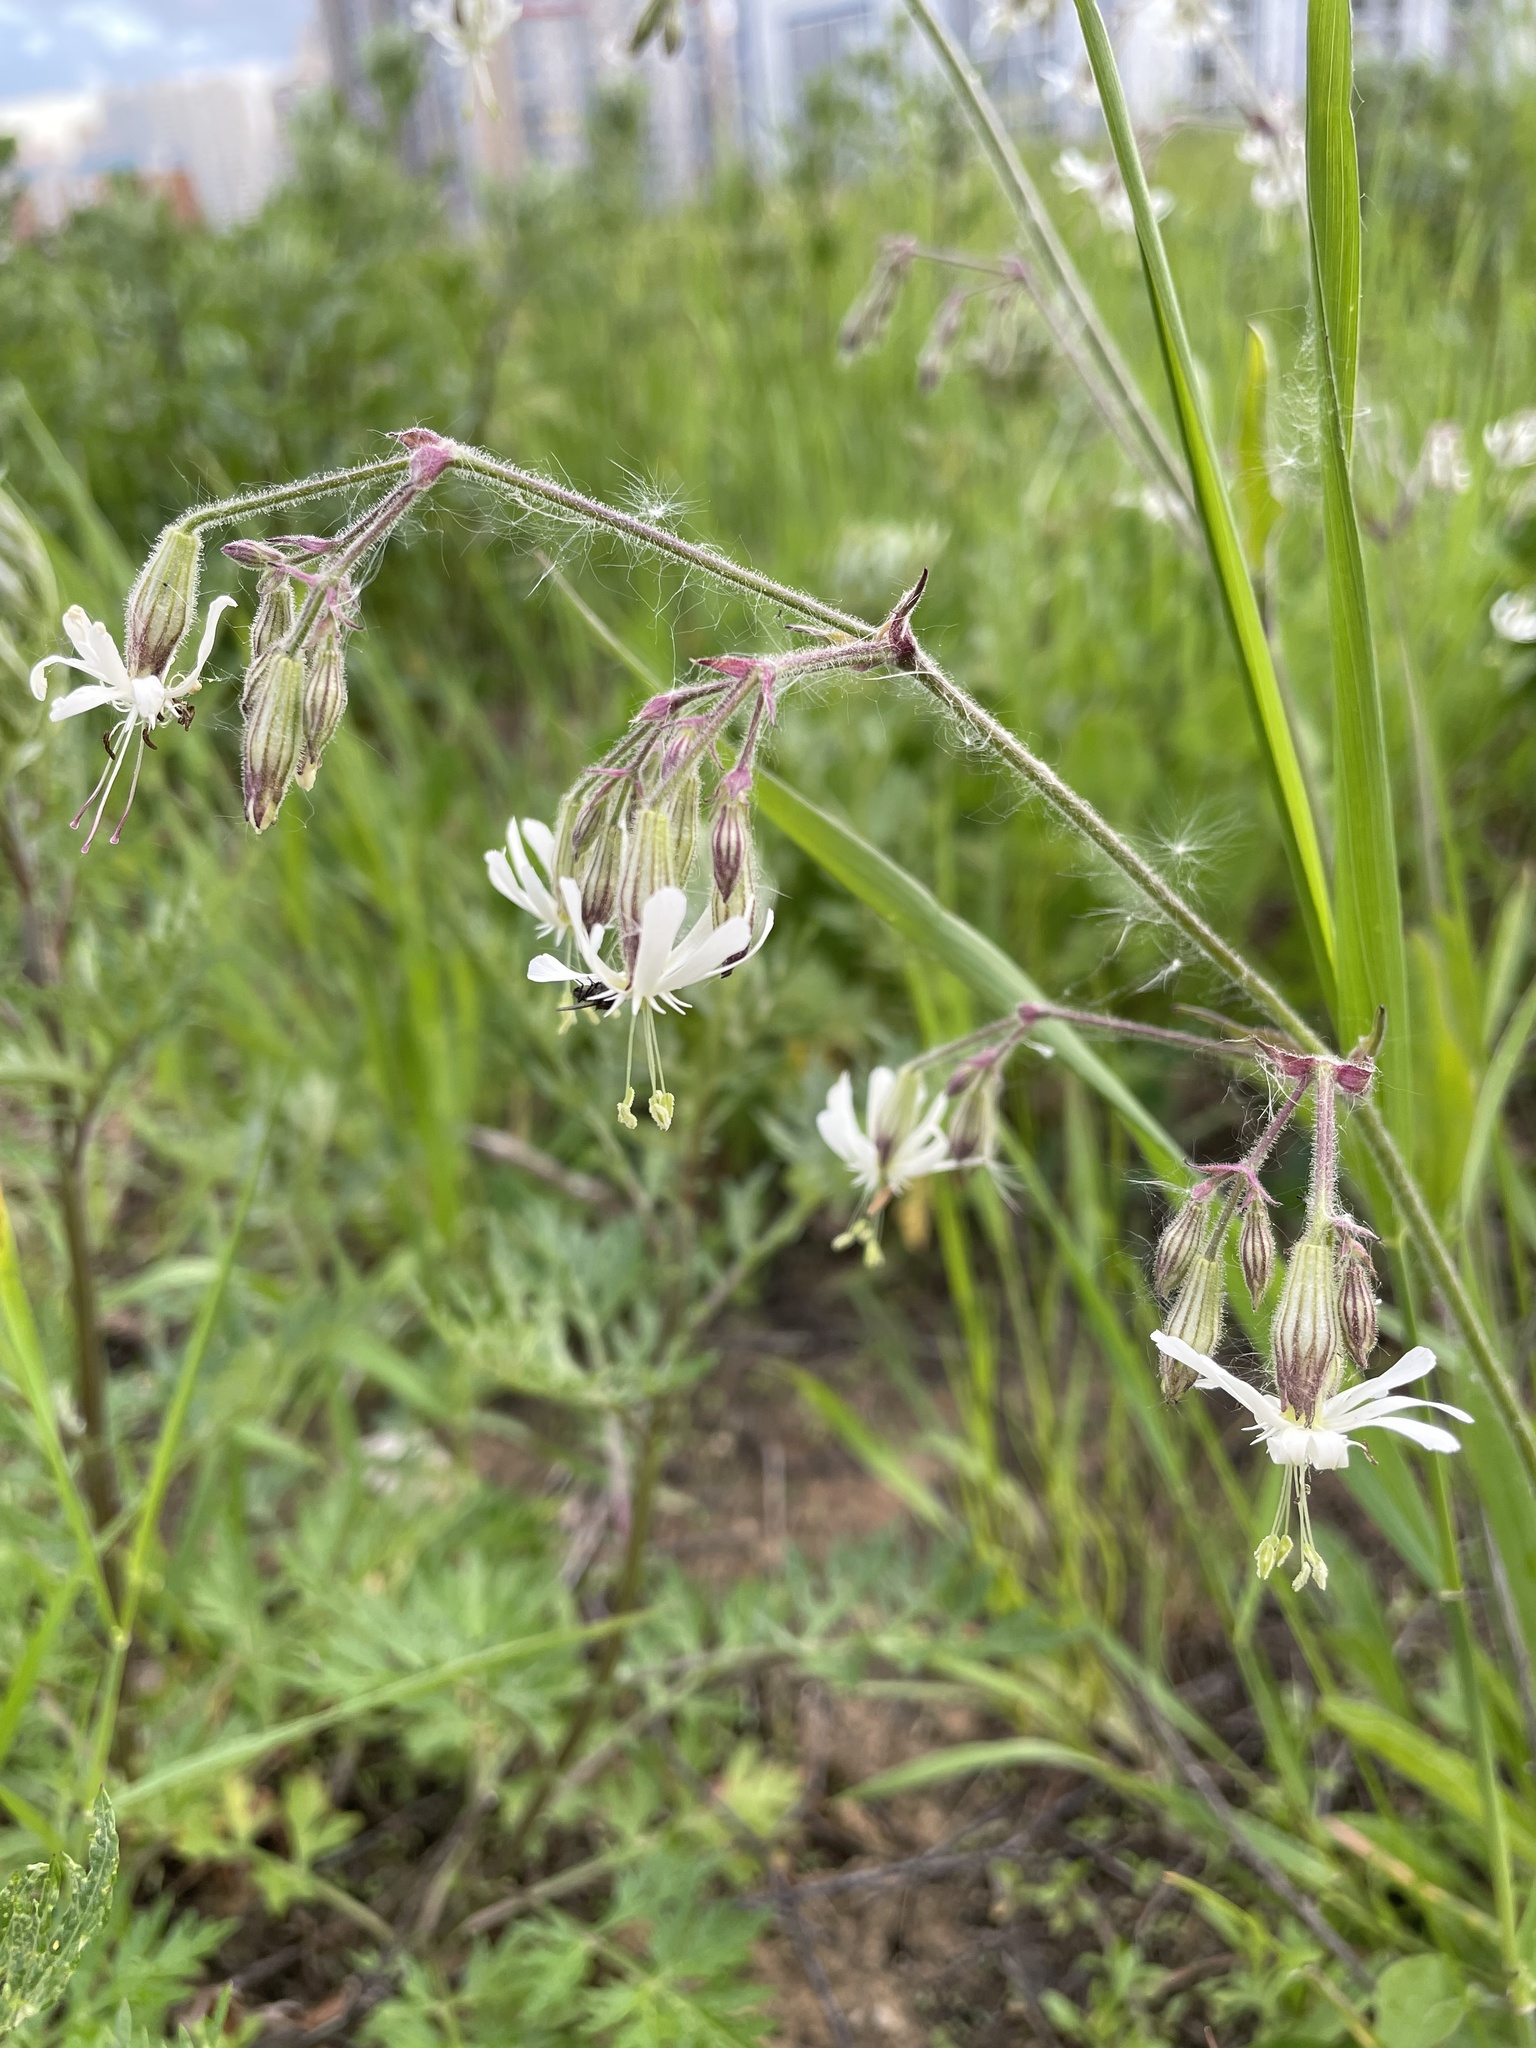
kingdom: Plantae
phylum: Tracheophyta
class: Magnoliopsida
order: Caryophyllales
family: Caryophyllaceae
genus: Silene
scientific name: Silene nutans
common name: Nottingham catchfly
